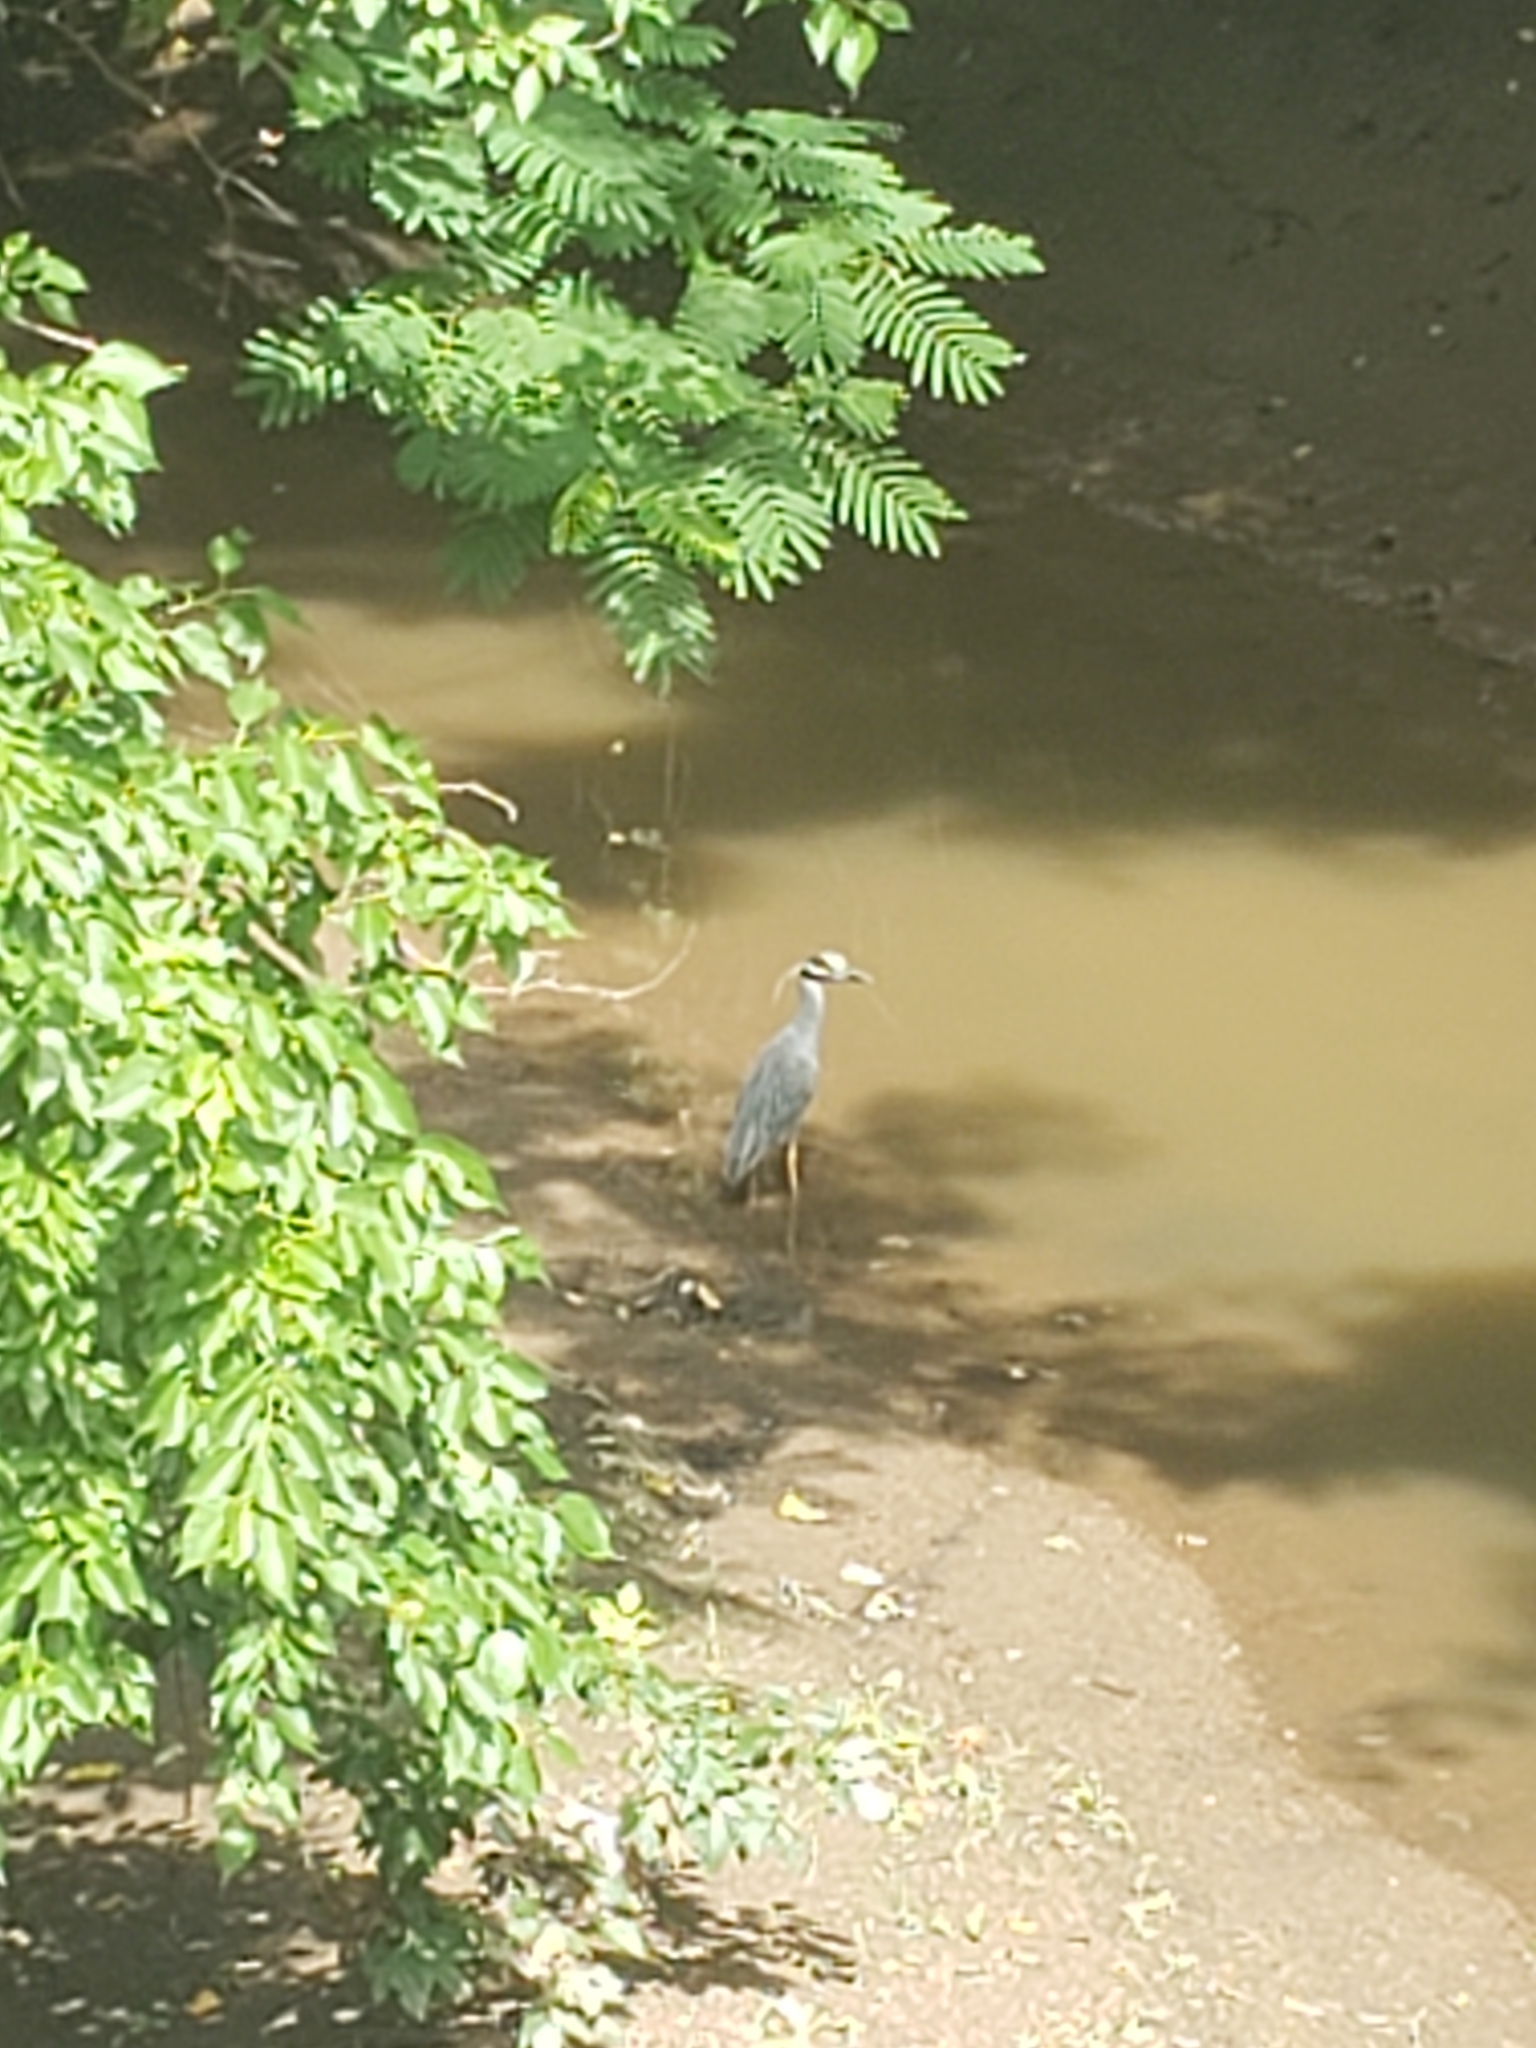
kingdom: Animalia
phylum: Chordata
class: Aves
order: Pelecaniformes
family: Ardeidae
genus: Nyctanassa
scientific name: Nyctanassa violacea
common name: Yellow-crowned night heron
